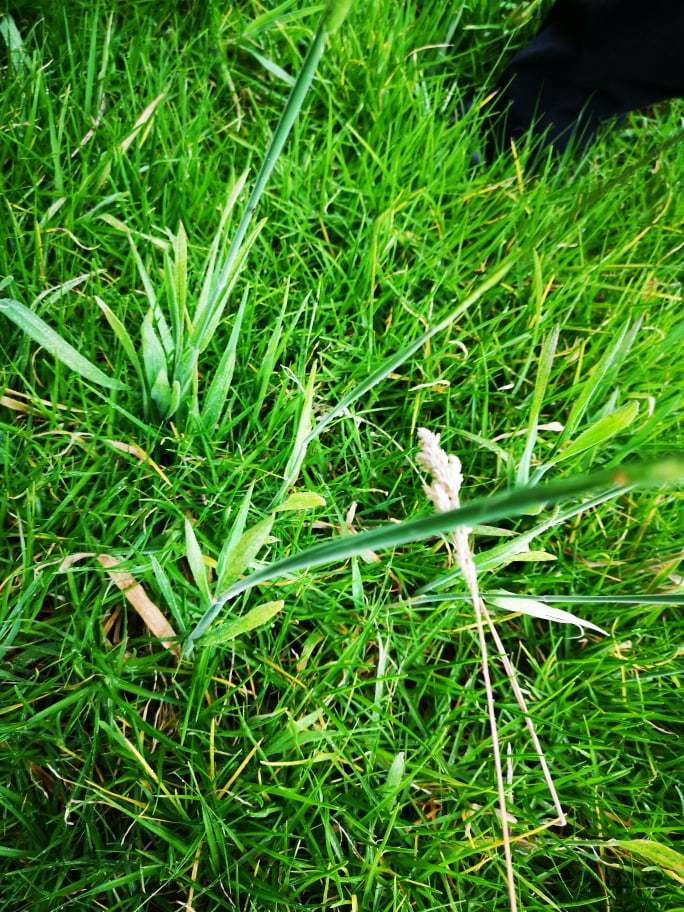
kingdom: Plantae
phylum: Tracheophyta
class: Liliopsida
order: Poales
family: Poaceae
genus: Holcus
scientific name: Holcus lanatus
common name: Yorkshire-fog
